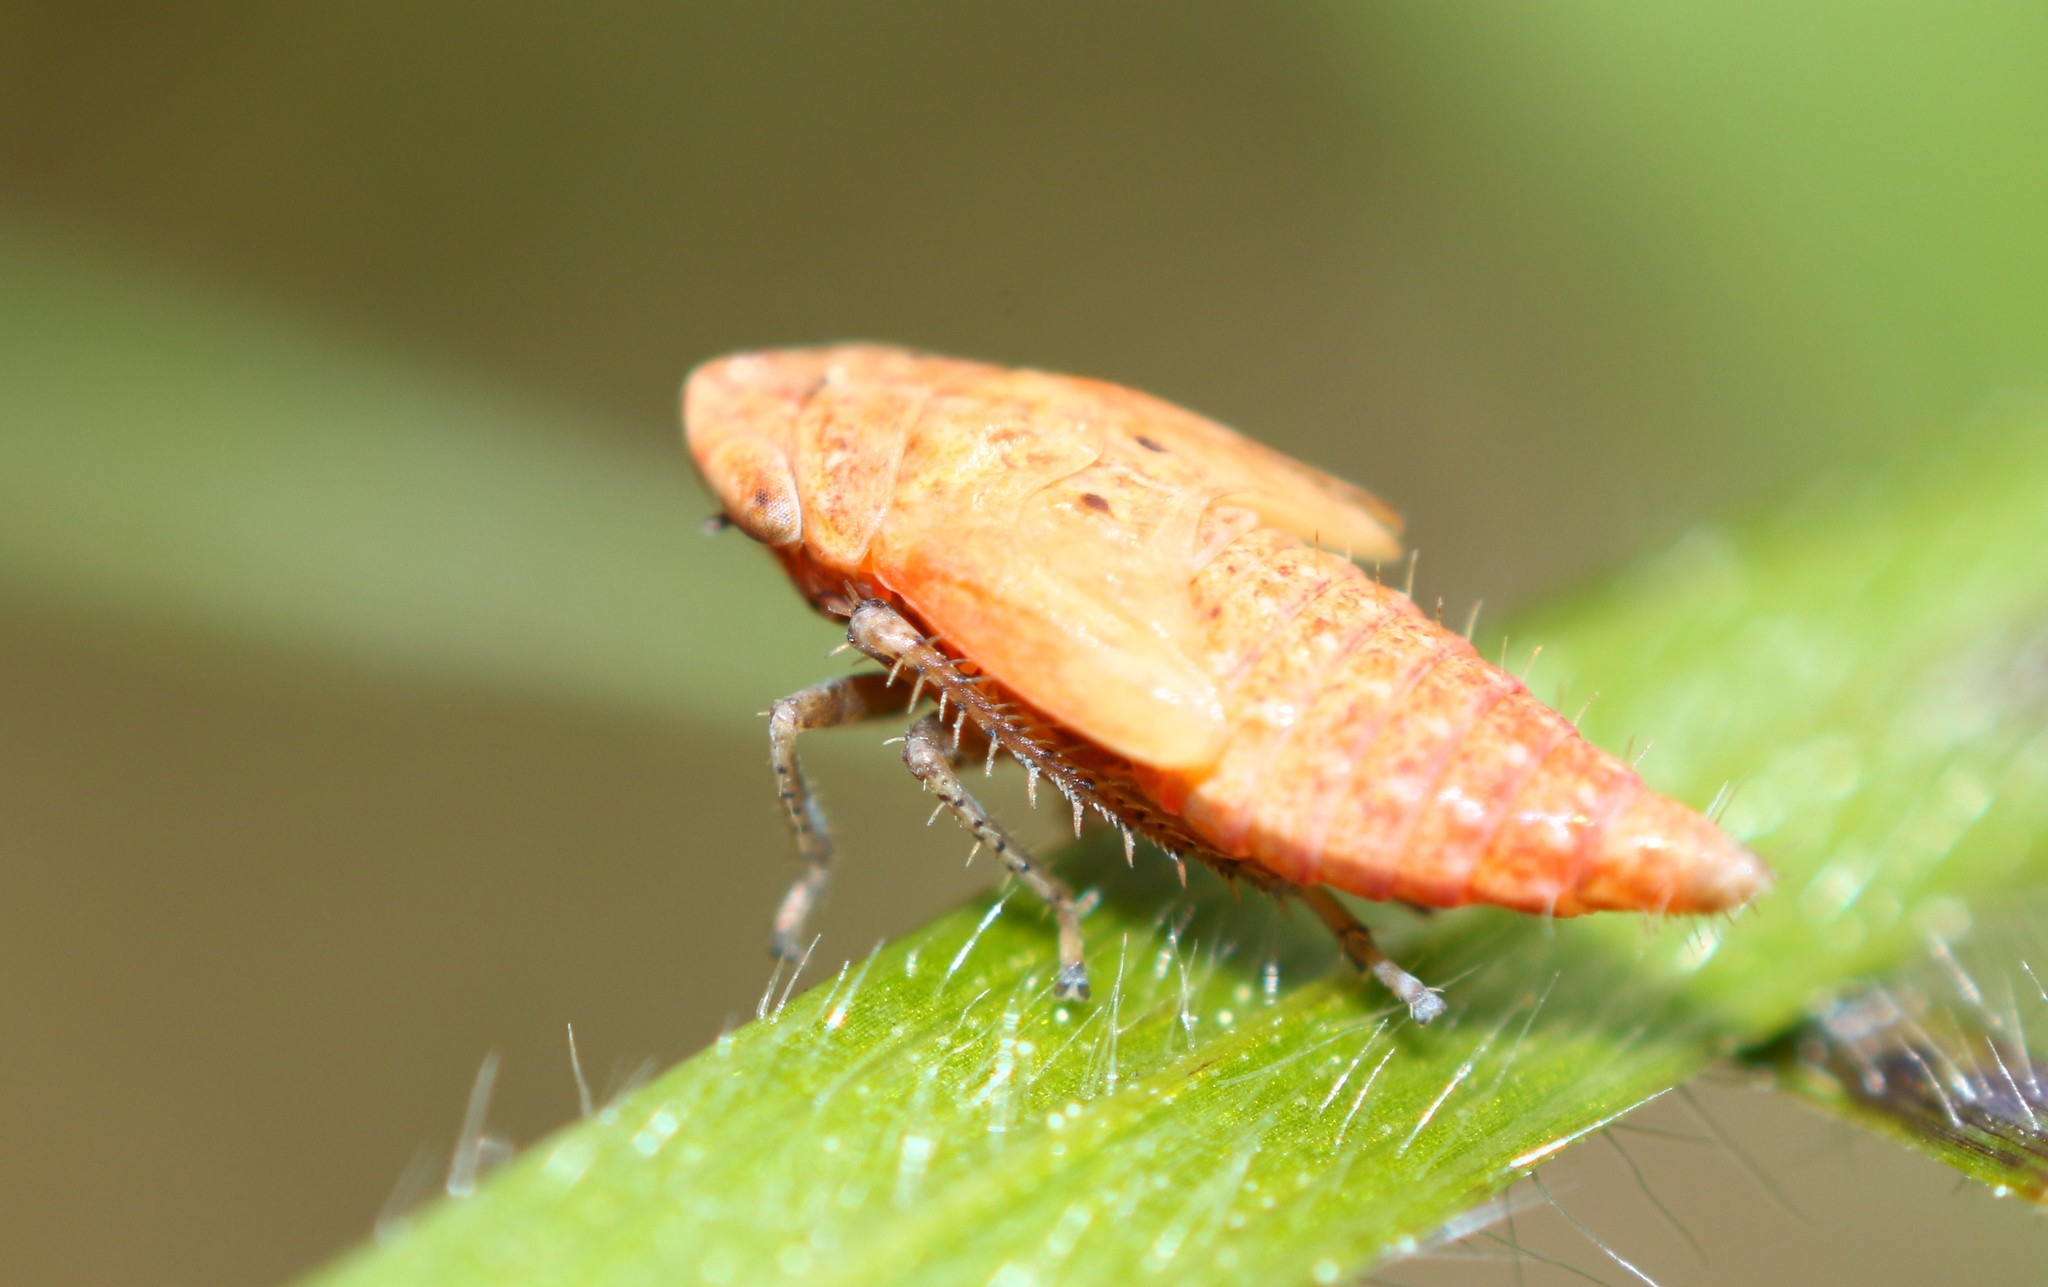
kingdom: Animalia
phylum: Arthropoda
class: Insecta
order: Hemiptera
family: Cicadellidae
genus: Thamnotettix
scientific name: Thamnotettix exemtus
